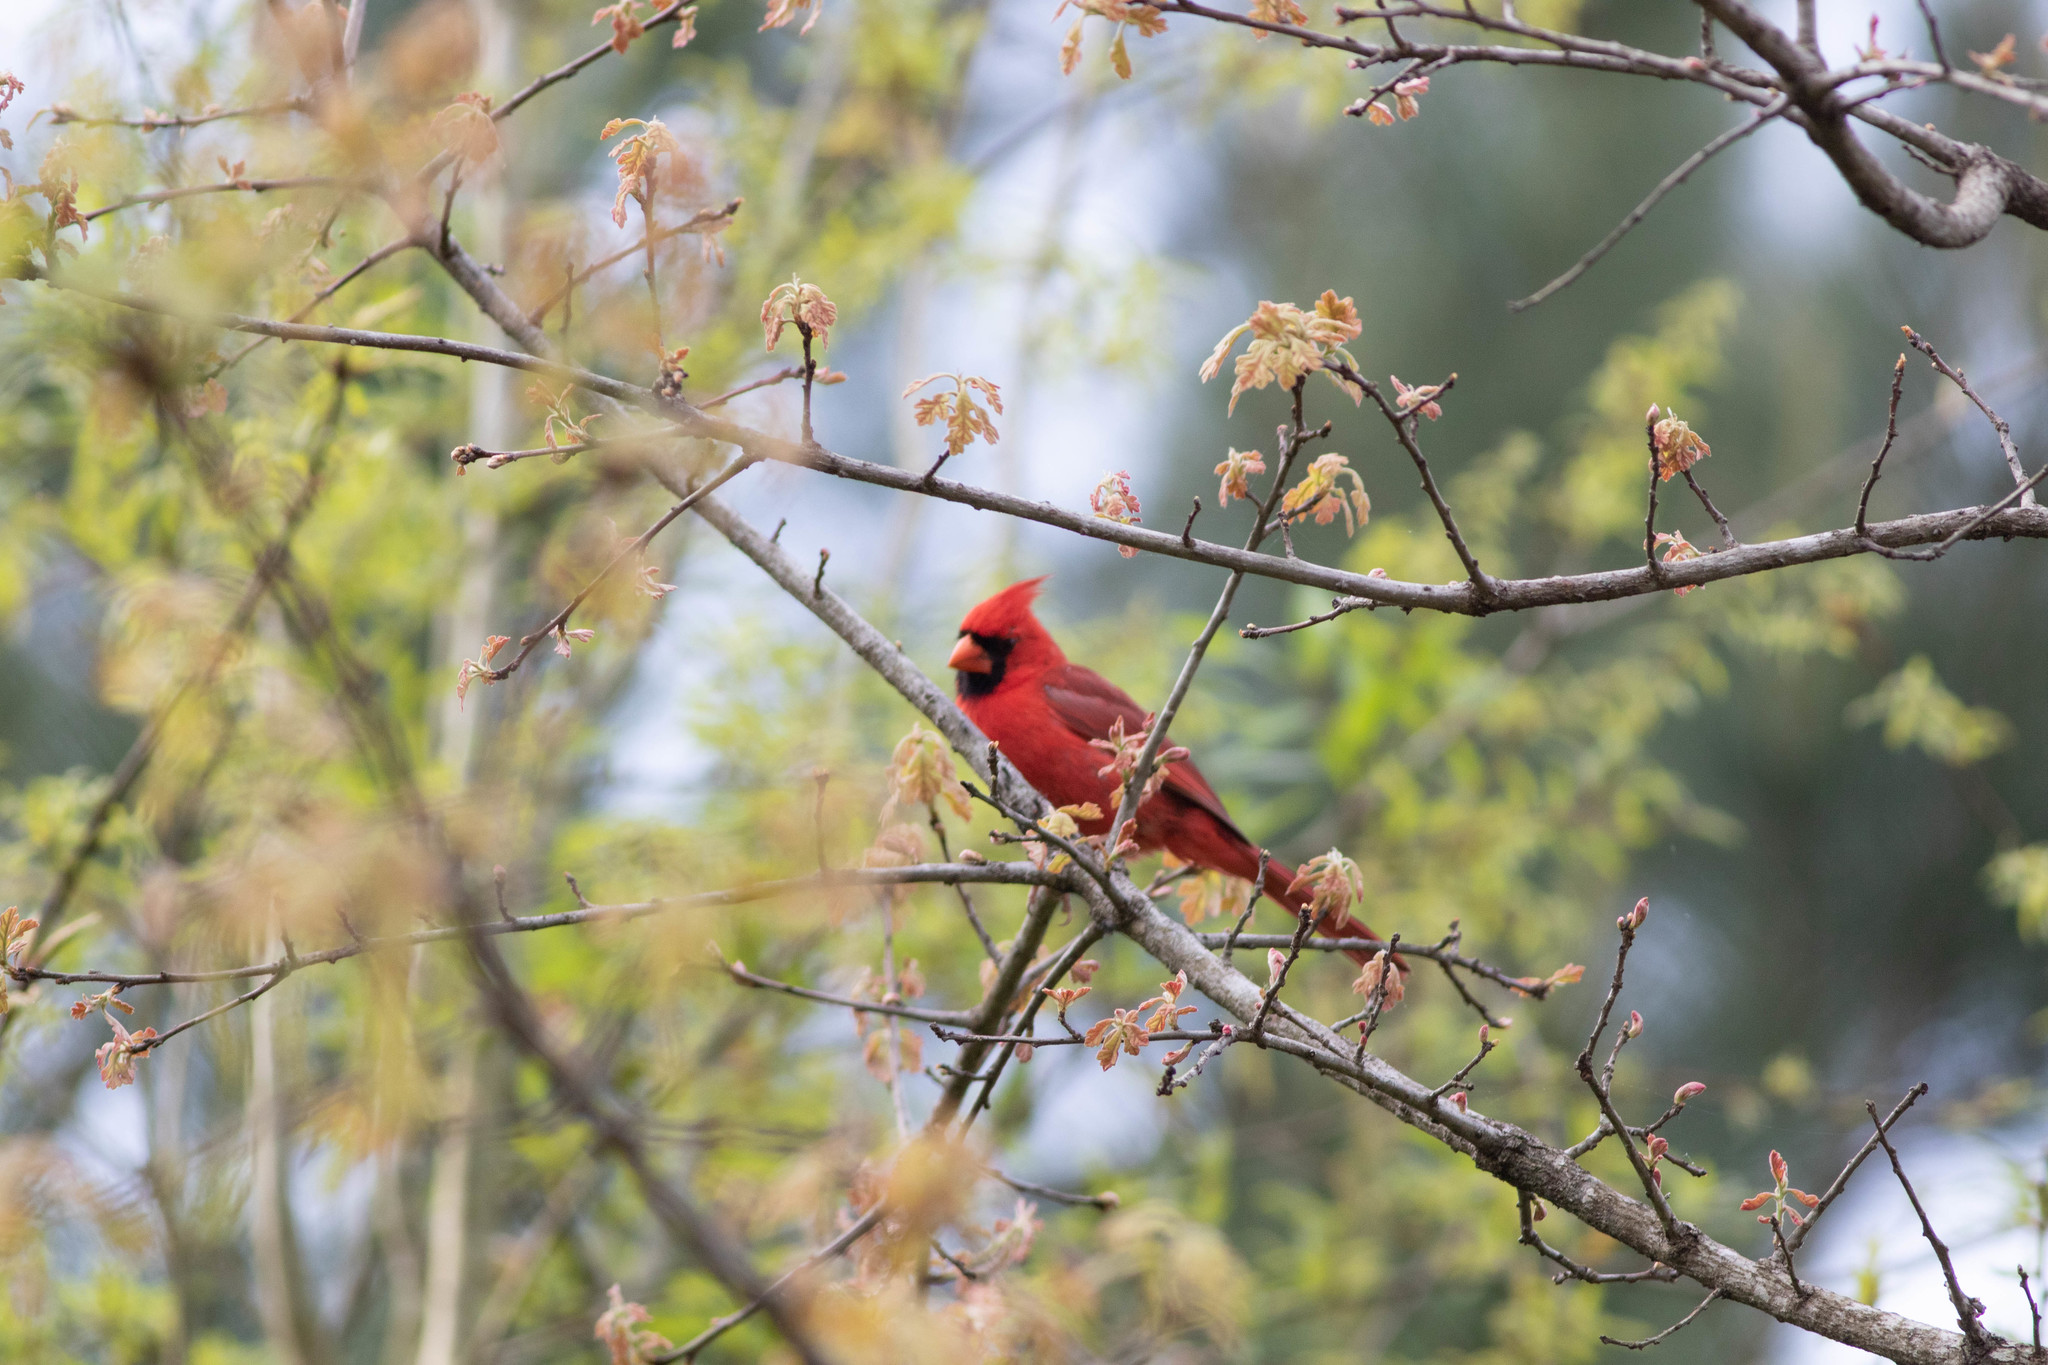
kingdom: Animalia
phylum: Chordata
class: Aves
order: Passeriformes
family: Cardinalidae
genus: Cardinalis
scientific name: Cardinalis cardinalis
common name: Northern cardinal
